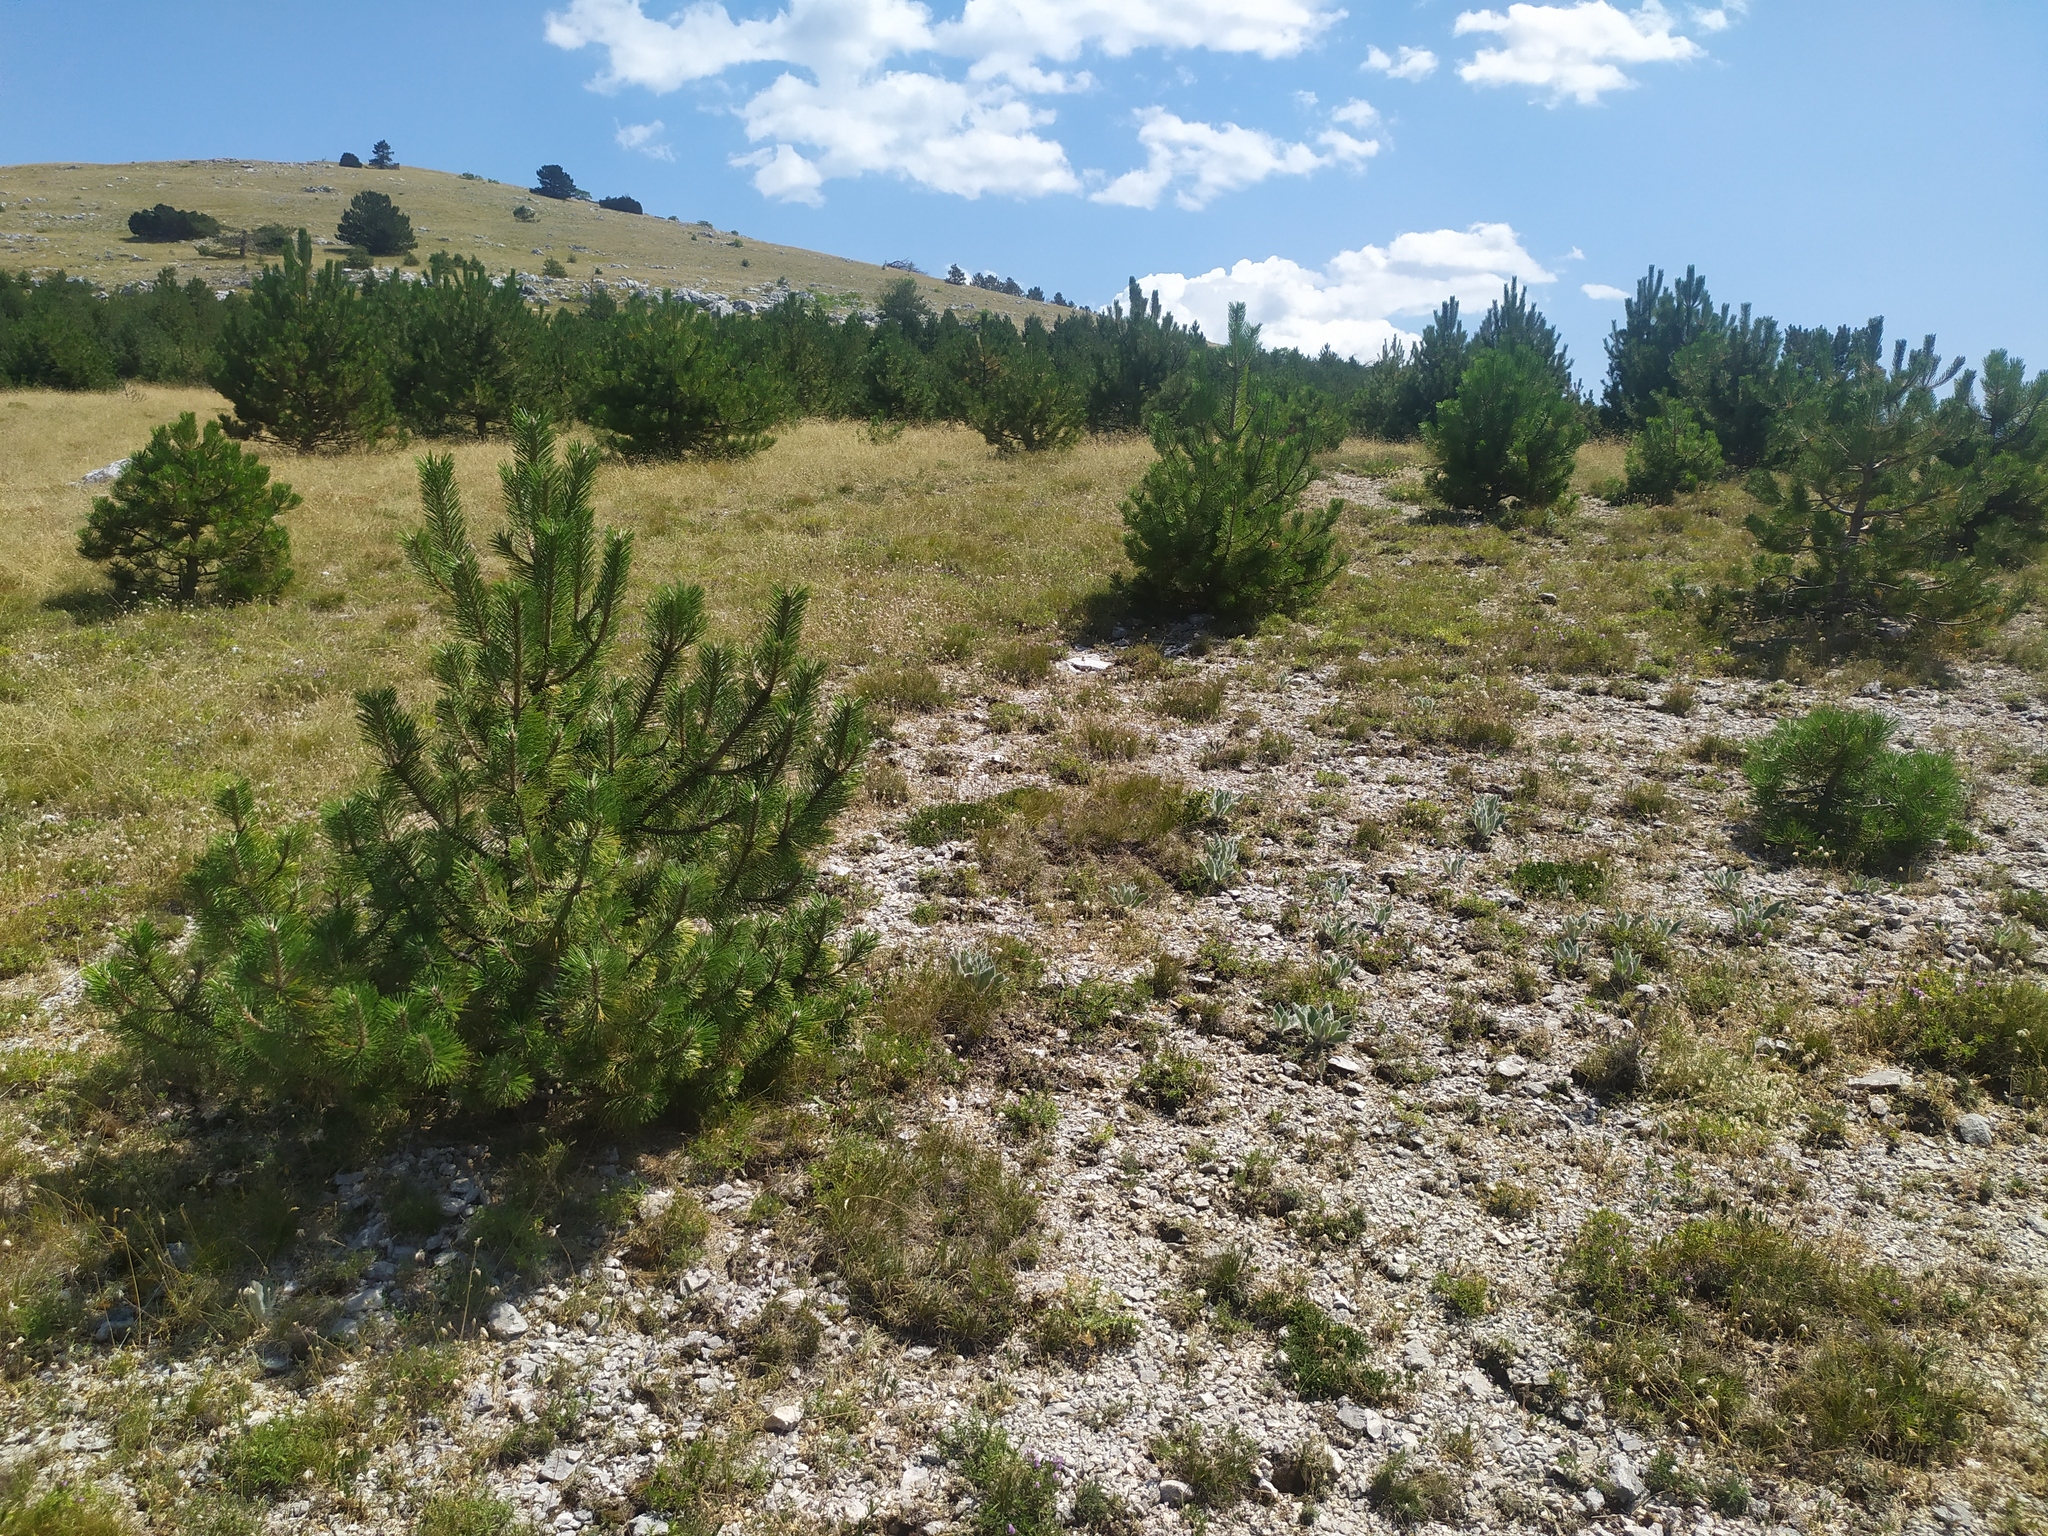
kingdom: Plantae
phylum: Tracheophyta
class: Pinopsida
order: Pinales
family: Pinaceae
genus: Pinus
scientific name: Pinus nigra
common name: Austrian pine
